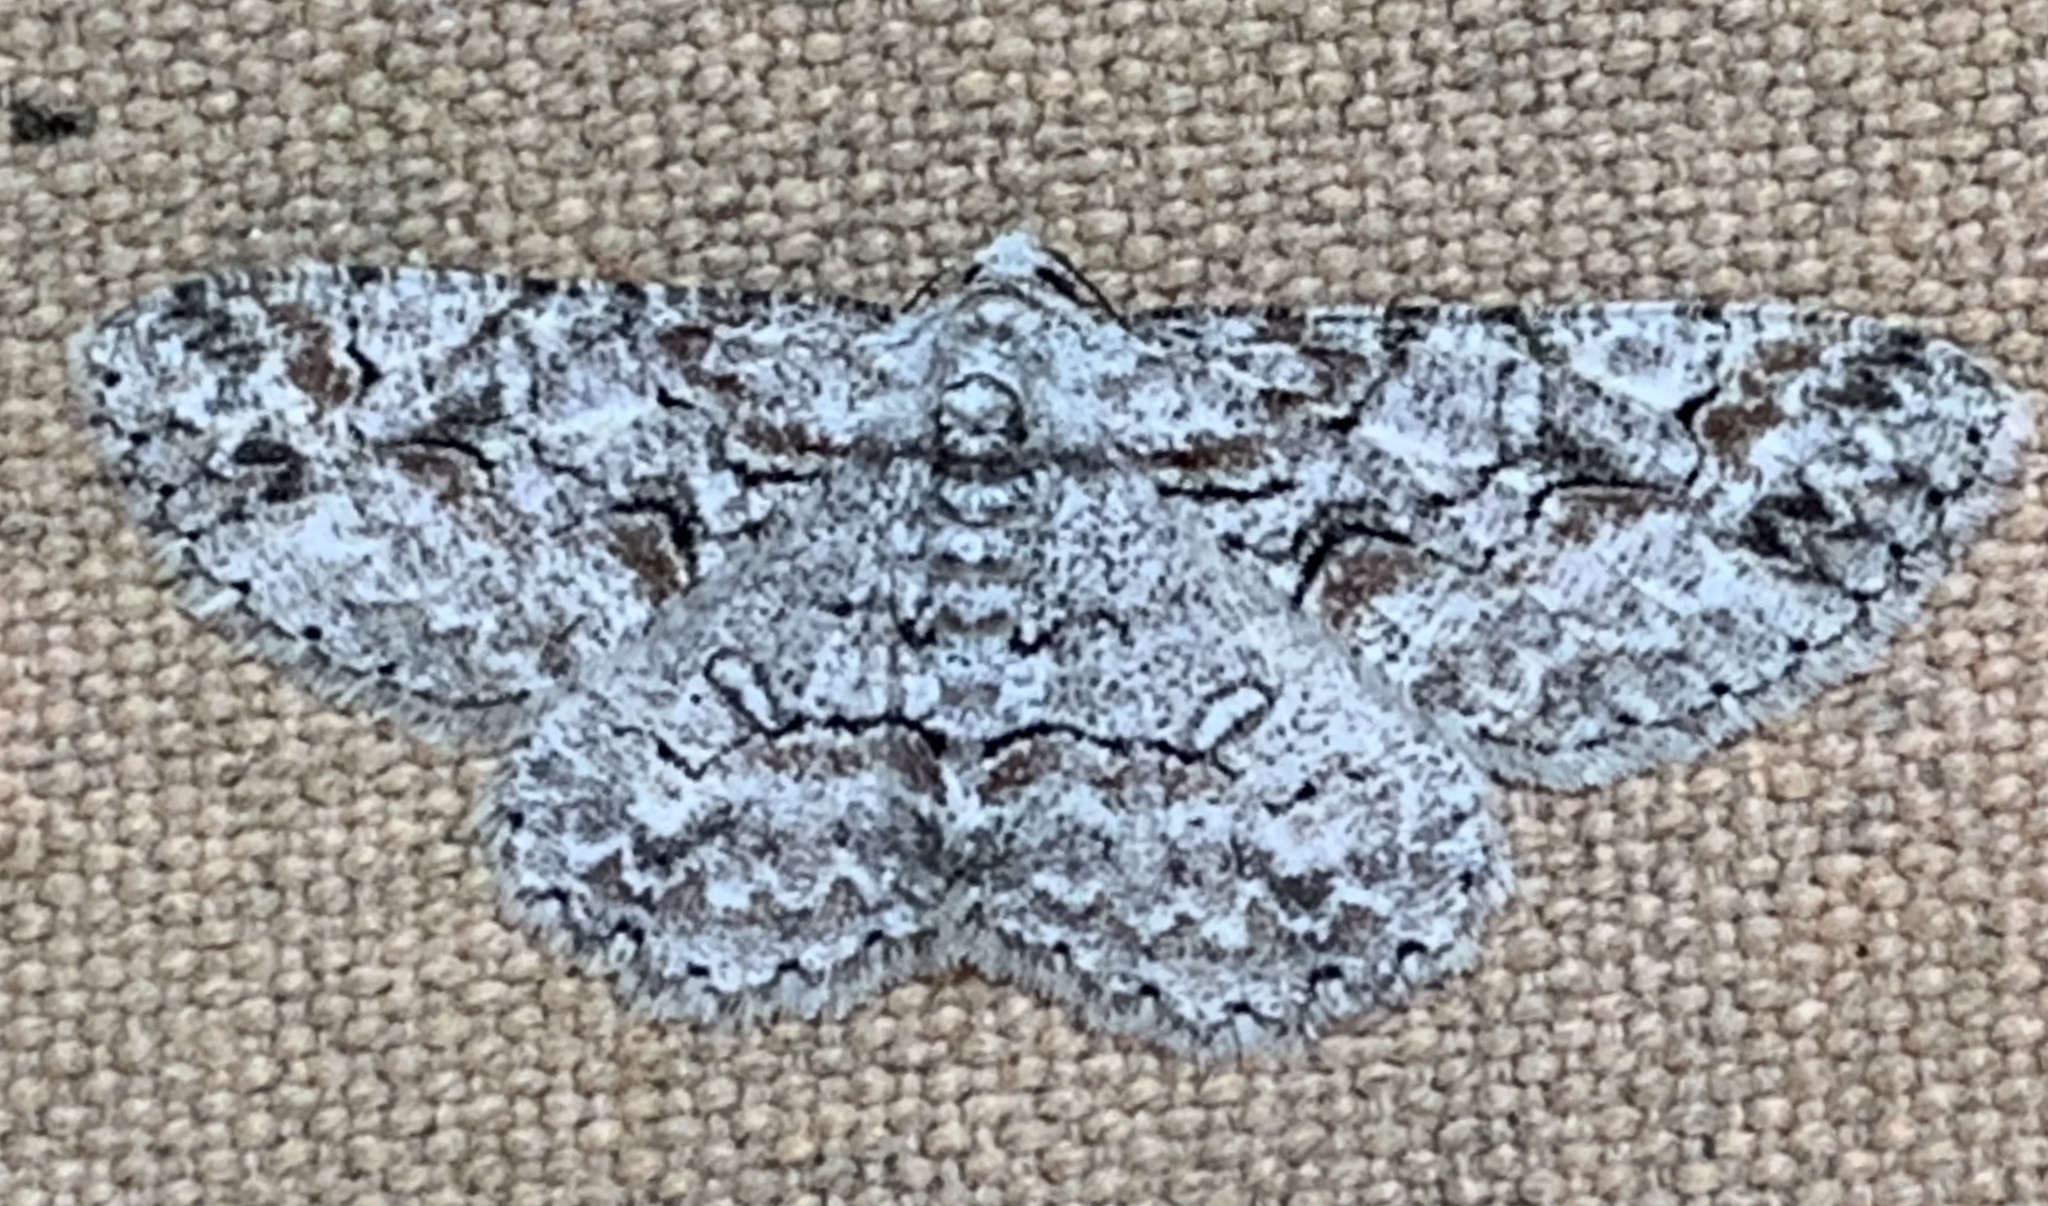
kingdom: Animalia
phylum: Arthropoda
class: Insecta
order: Lepidoptera
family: Geometridae
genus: Iridopsis
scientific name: Iridopsis defectaria
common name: Brown-shaded gray
